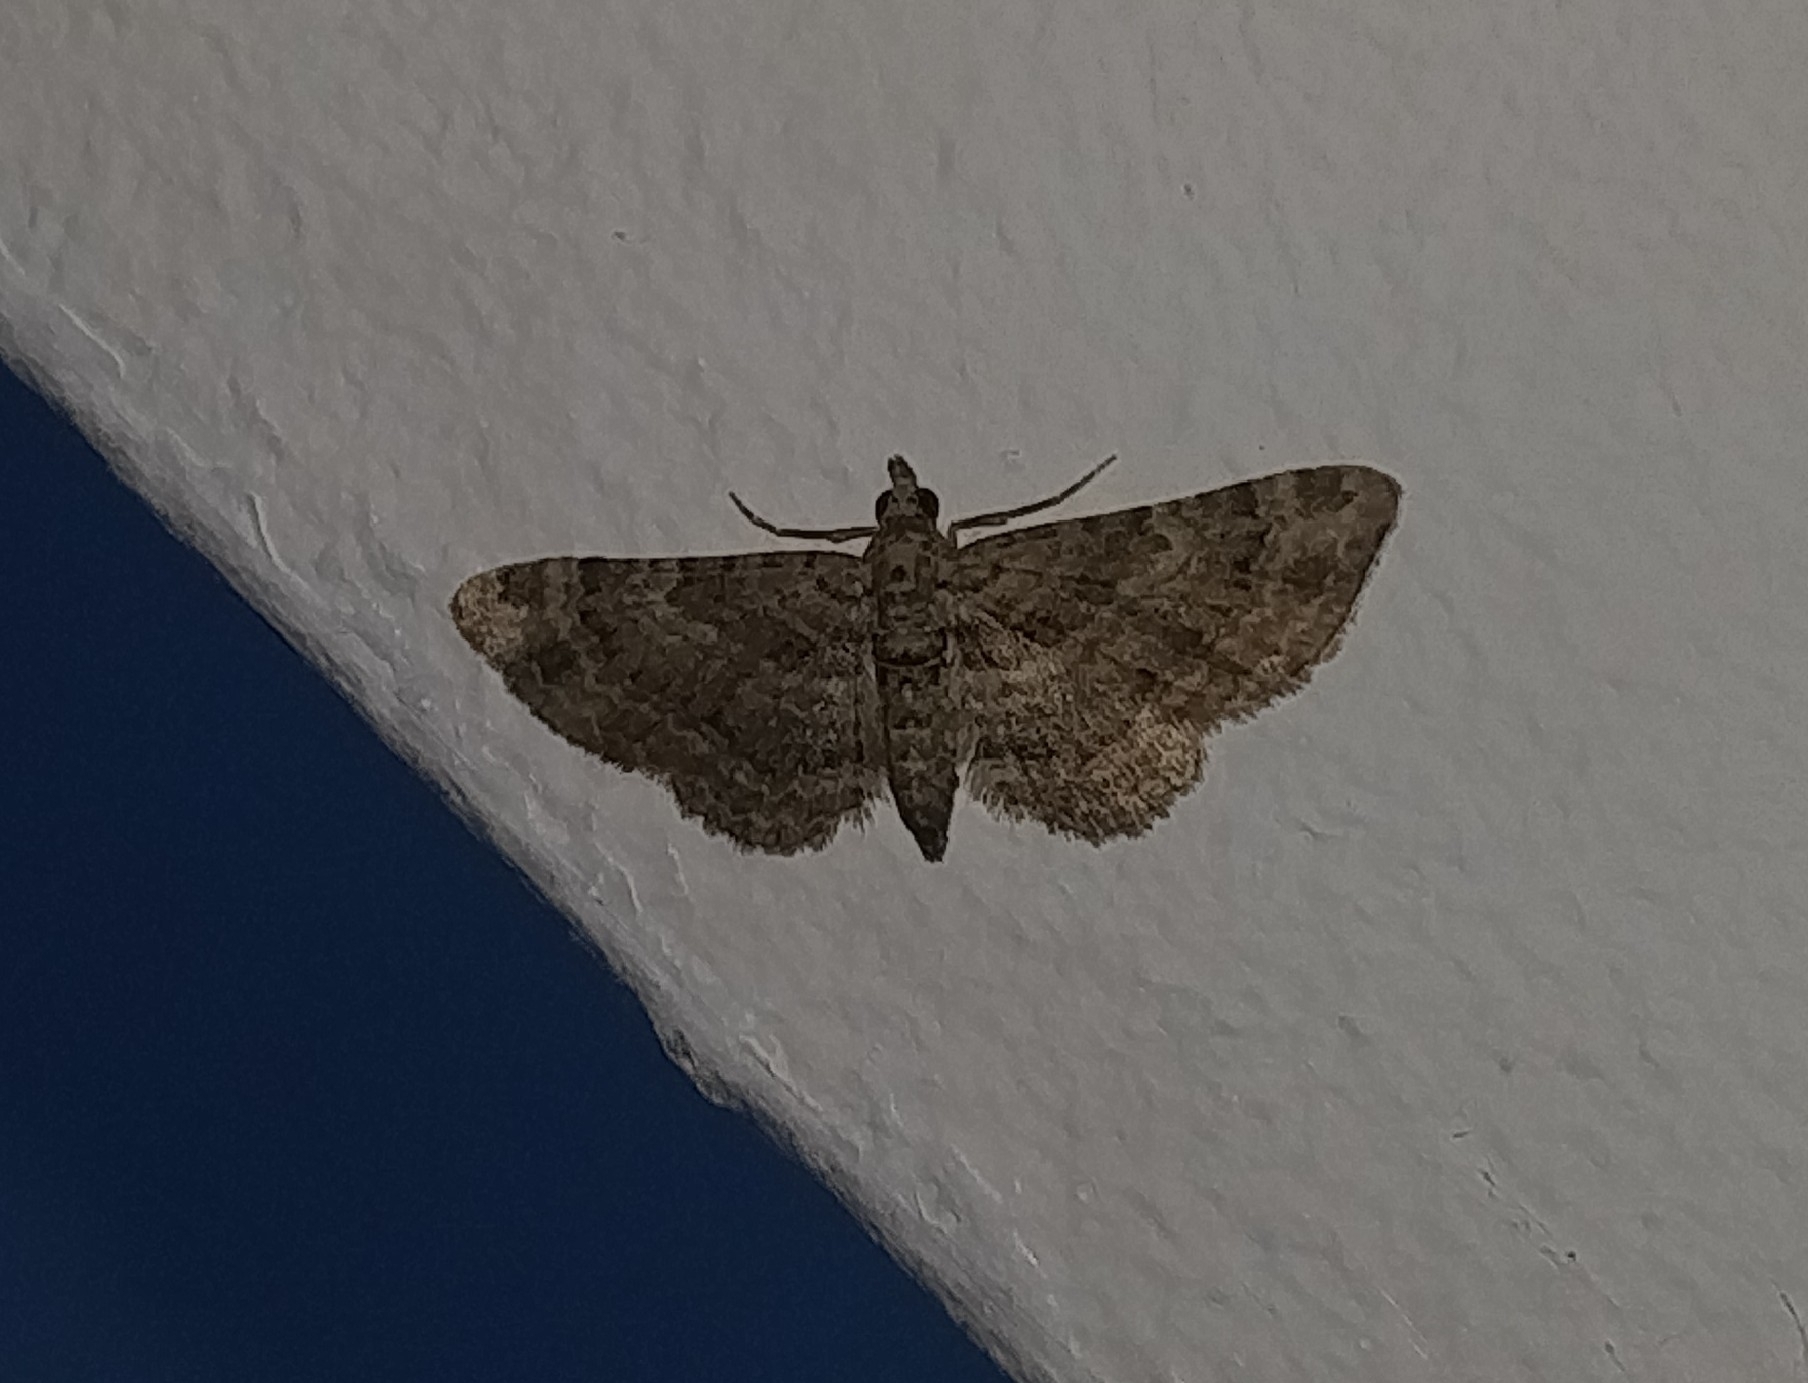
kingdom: Animalia
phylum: Arthropoda
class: Insecta
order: Lepidoptera
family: Geometridae
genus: Gymnoscelis
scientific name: Gymnoscelis rufifasciata
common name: Double-striped pug
